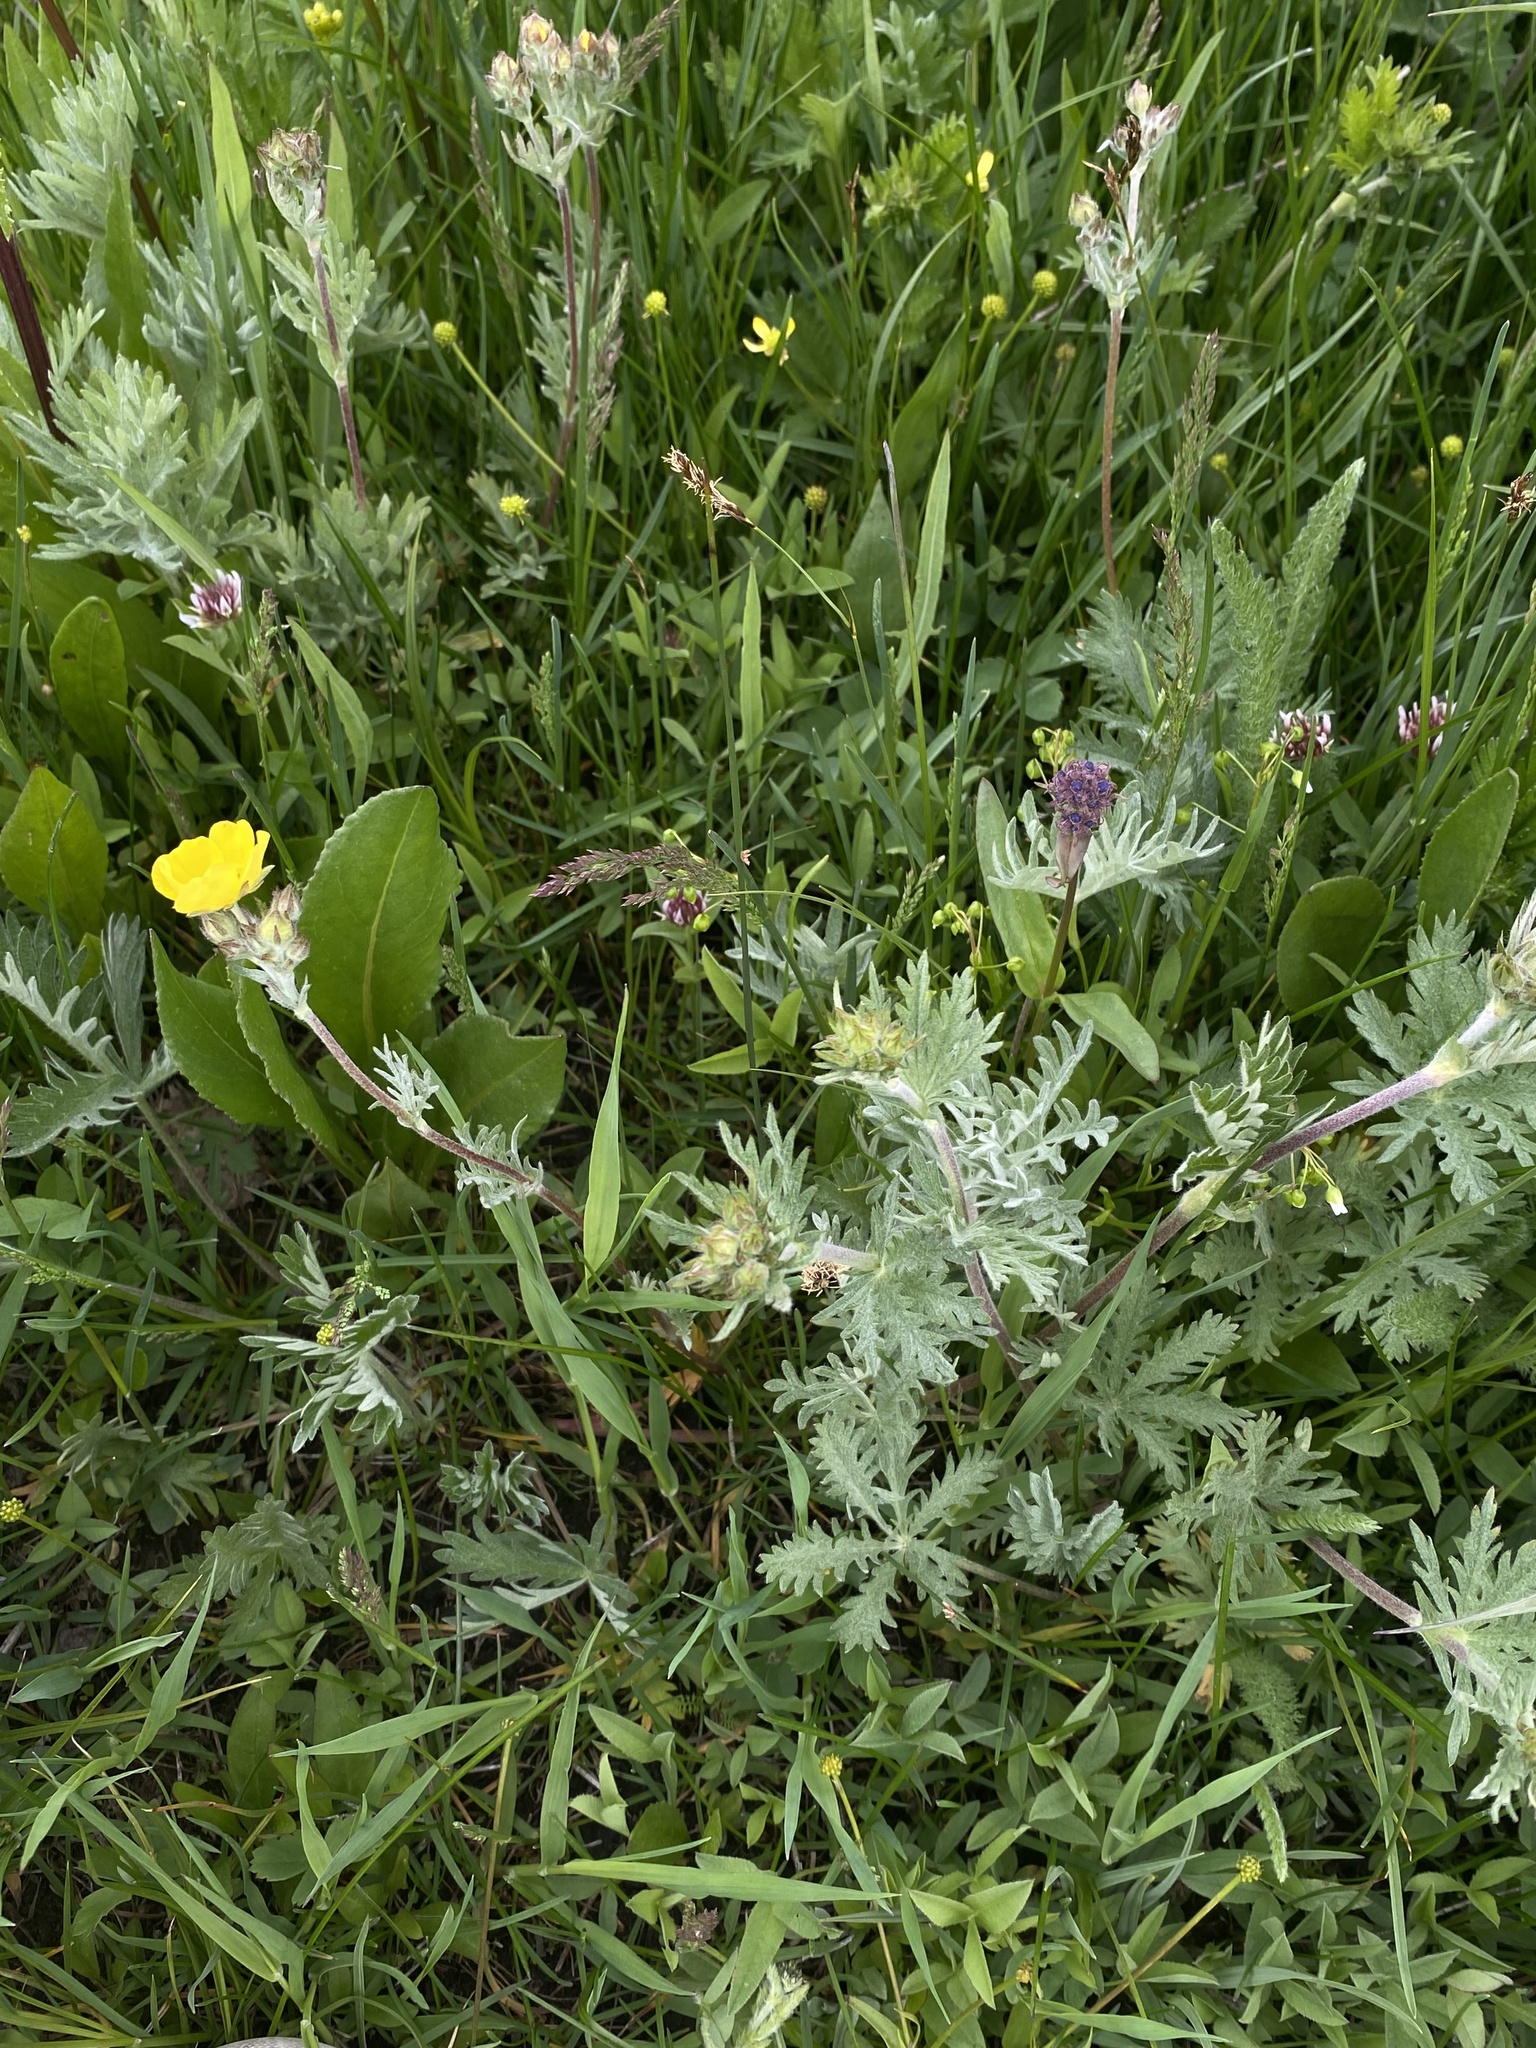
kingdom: Plantae
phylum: Tracheophyta
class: Magnoliopsida
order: Rosales
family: Rosaceae
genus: Potentilla
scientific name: Potentilla gracilis
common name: Graceful cinquefoil
